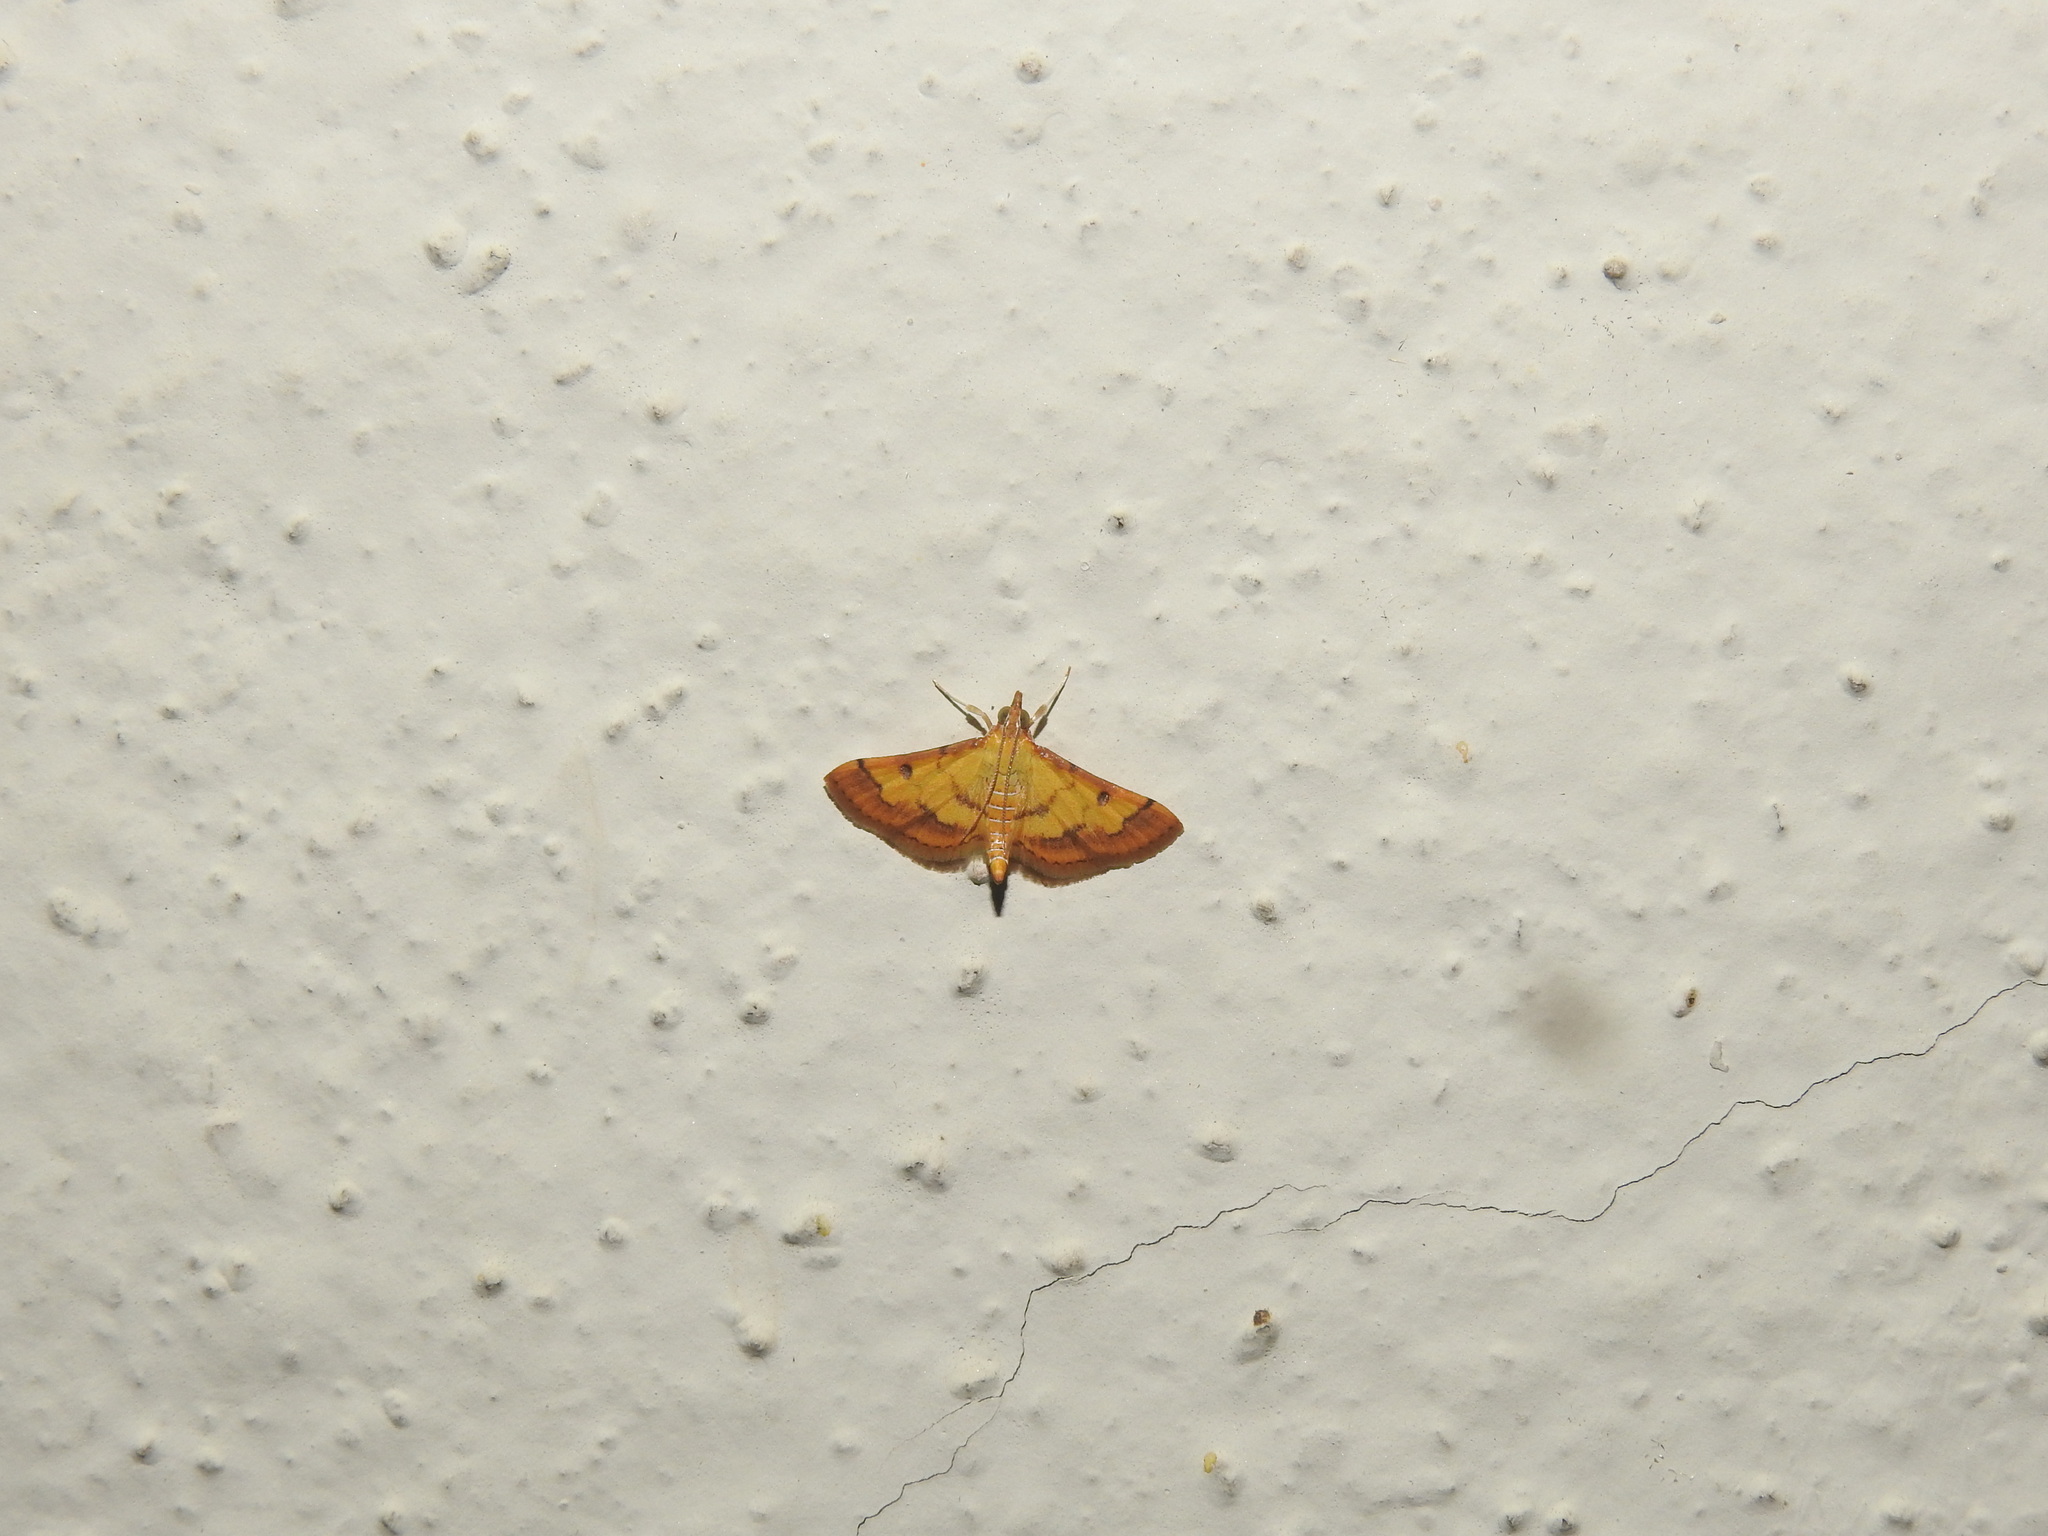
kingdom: Animalia
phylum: Arthropoda
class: Insecta
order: Lepidoptera
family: Crambidae
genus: Ischnurges
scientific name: Ischnurges luteomarginalis
